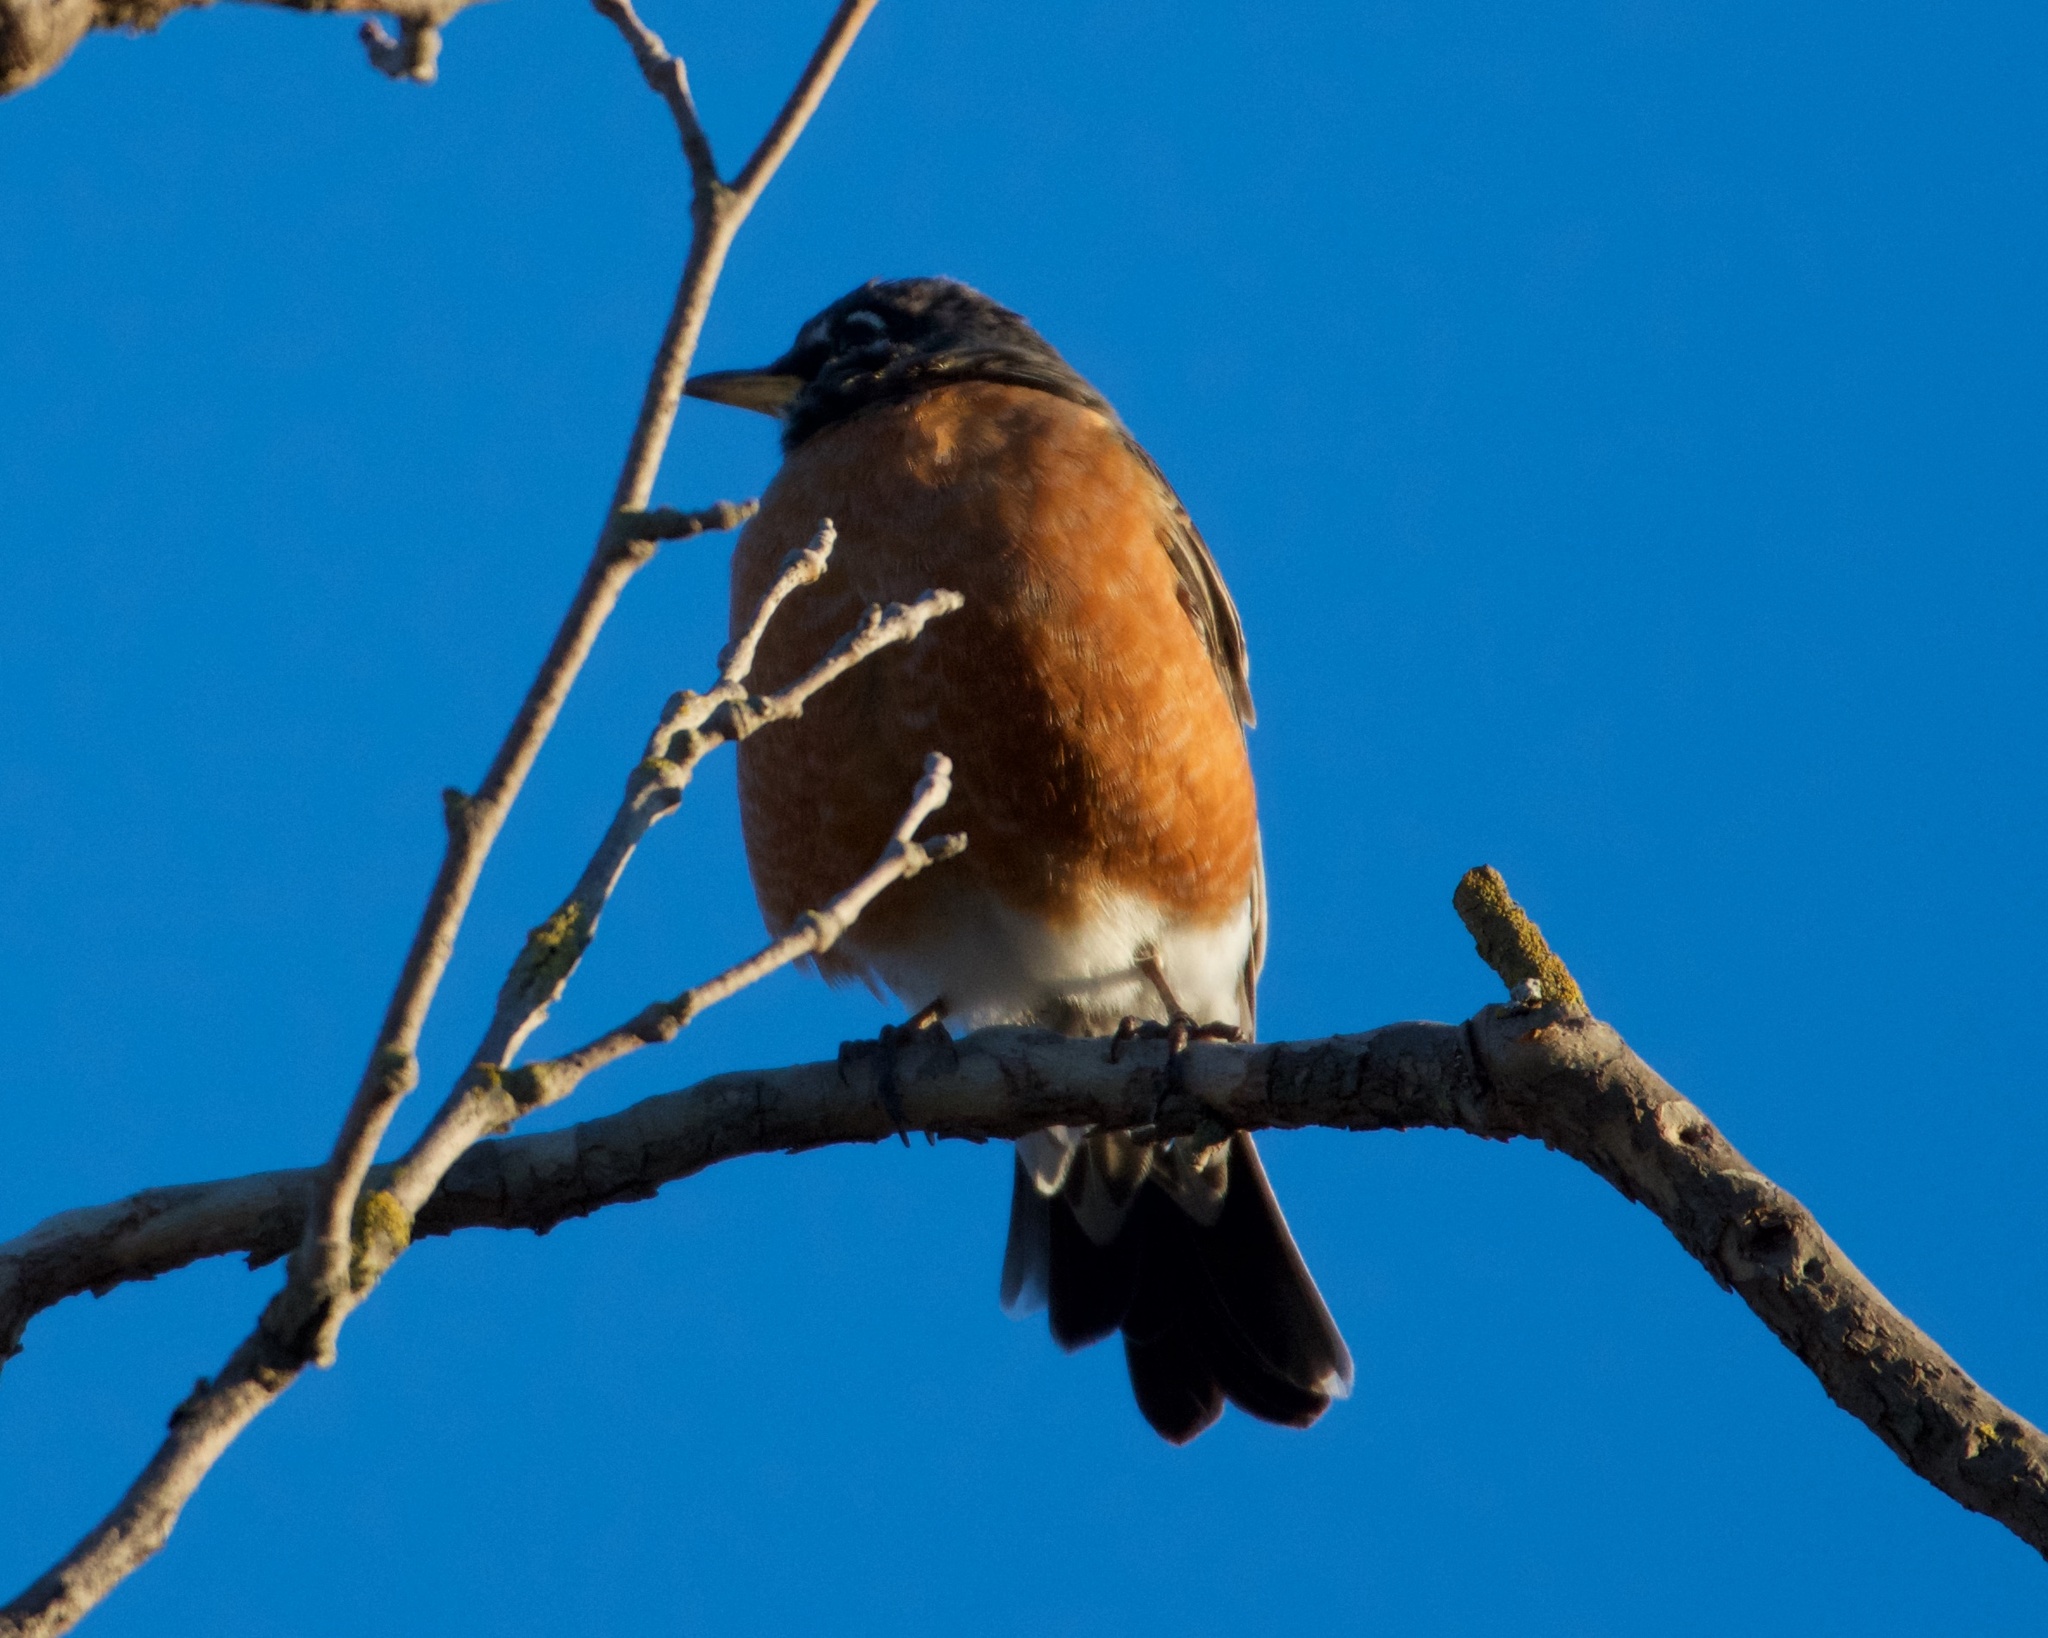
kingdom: Animalia
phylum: Chordata
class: Aves
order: Passeriformes
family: Turdidae
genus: Turdus
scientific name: Turdus migratorius
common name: American robin
